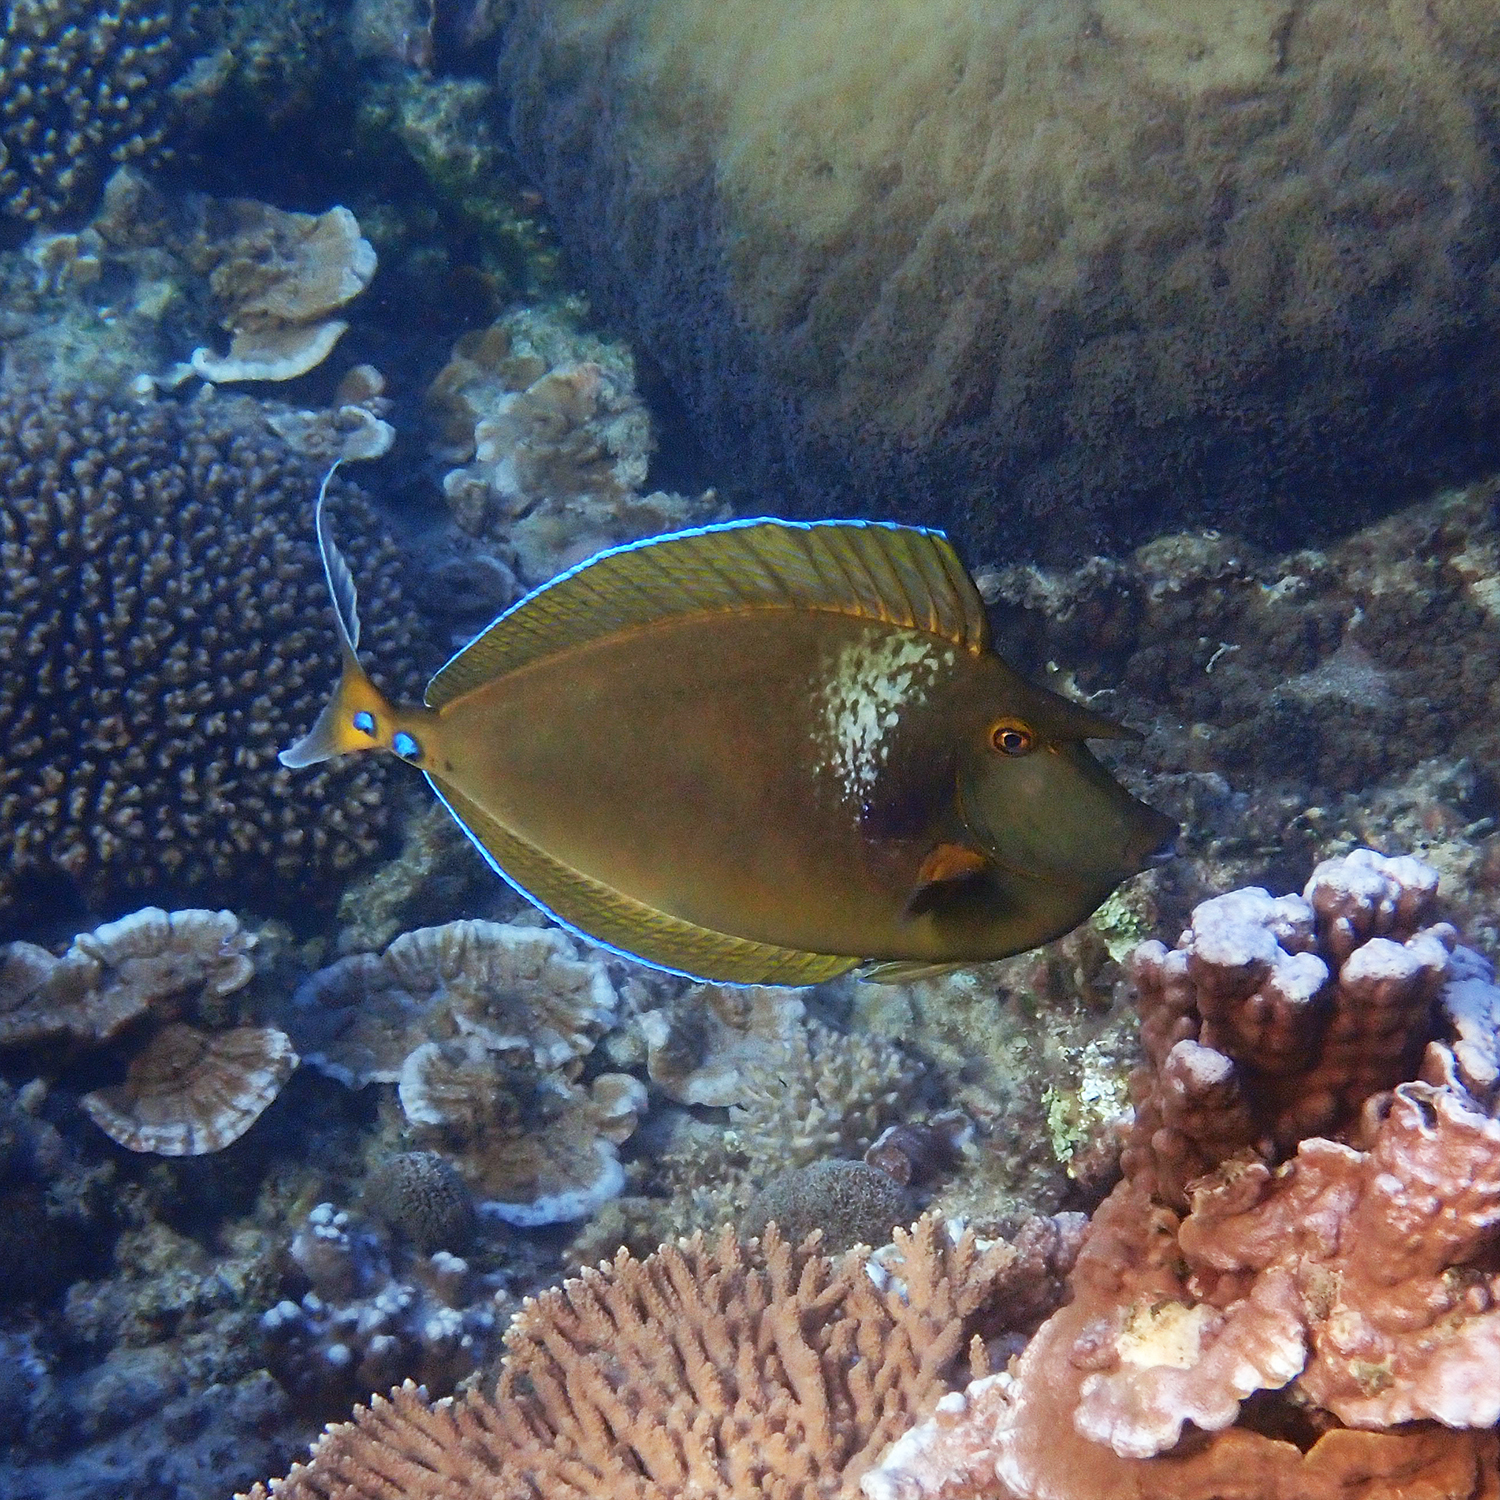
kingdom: Animalia
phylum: Chordata
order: Perciformes
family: Acanthuridae
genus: Naso
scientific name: Naso unicornis
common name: Bluespine unicornfish
